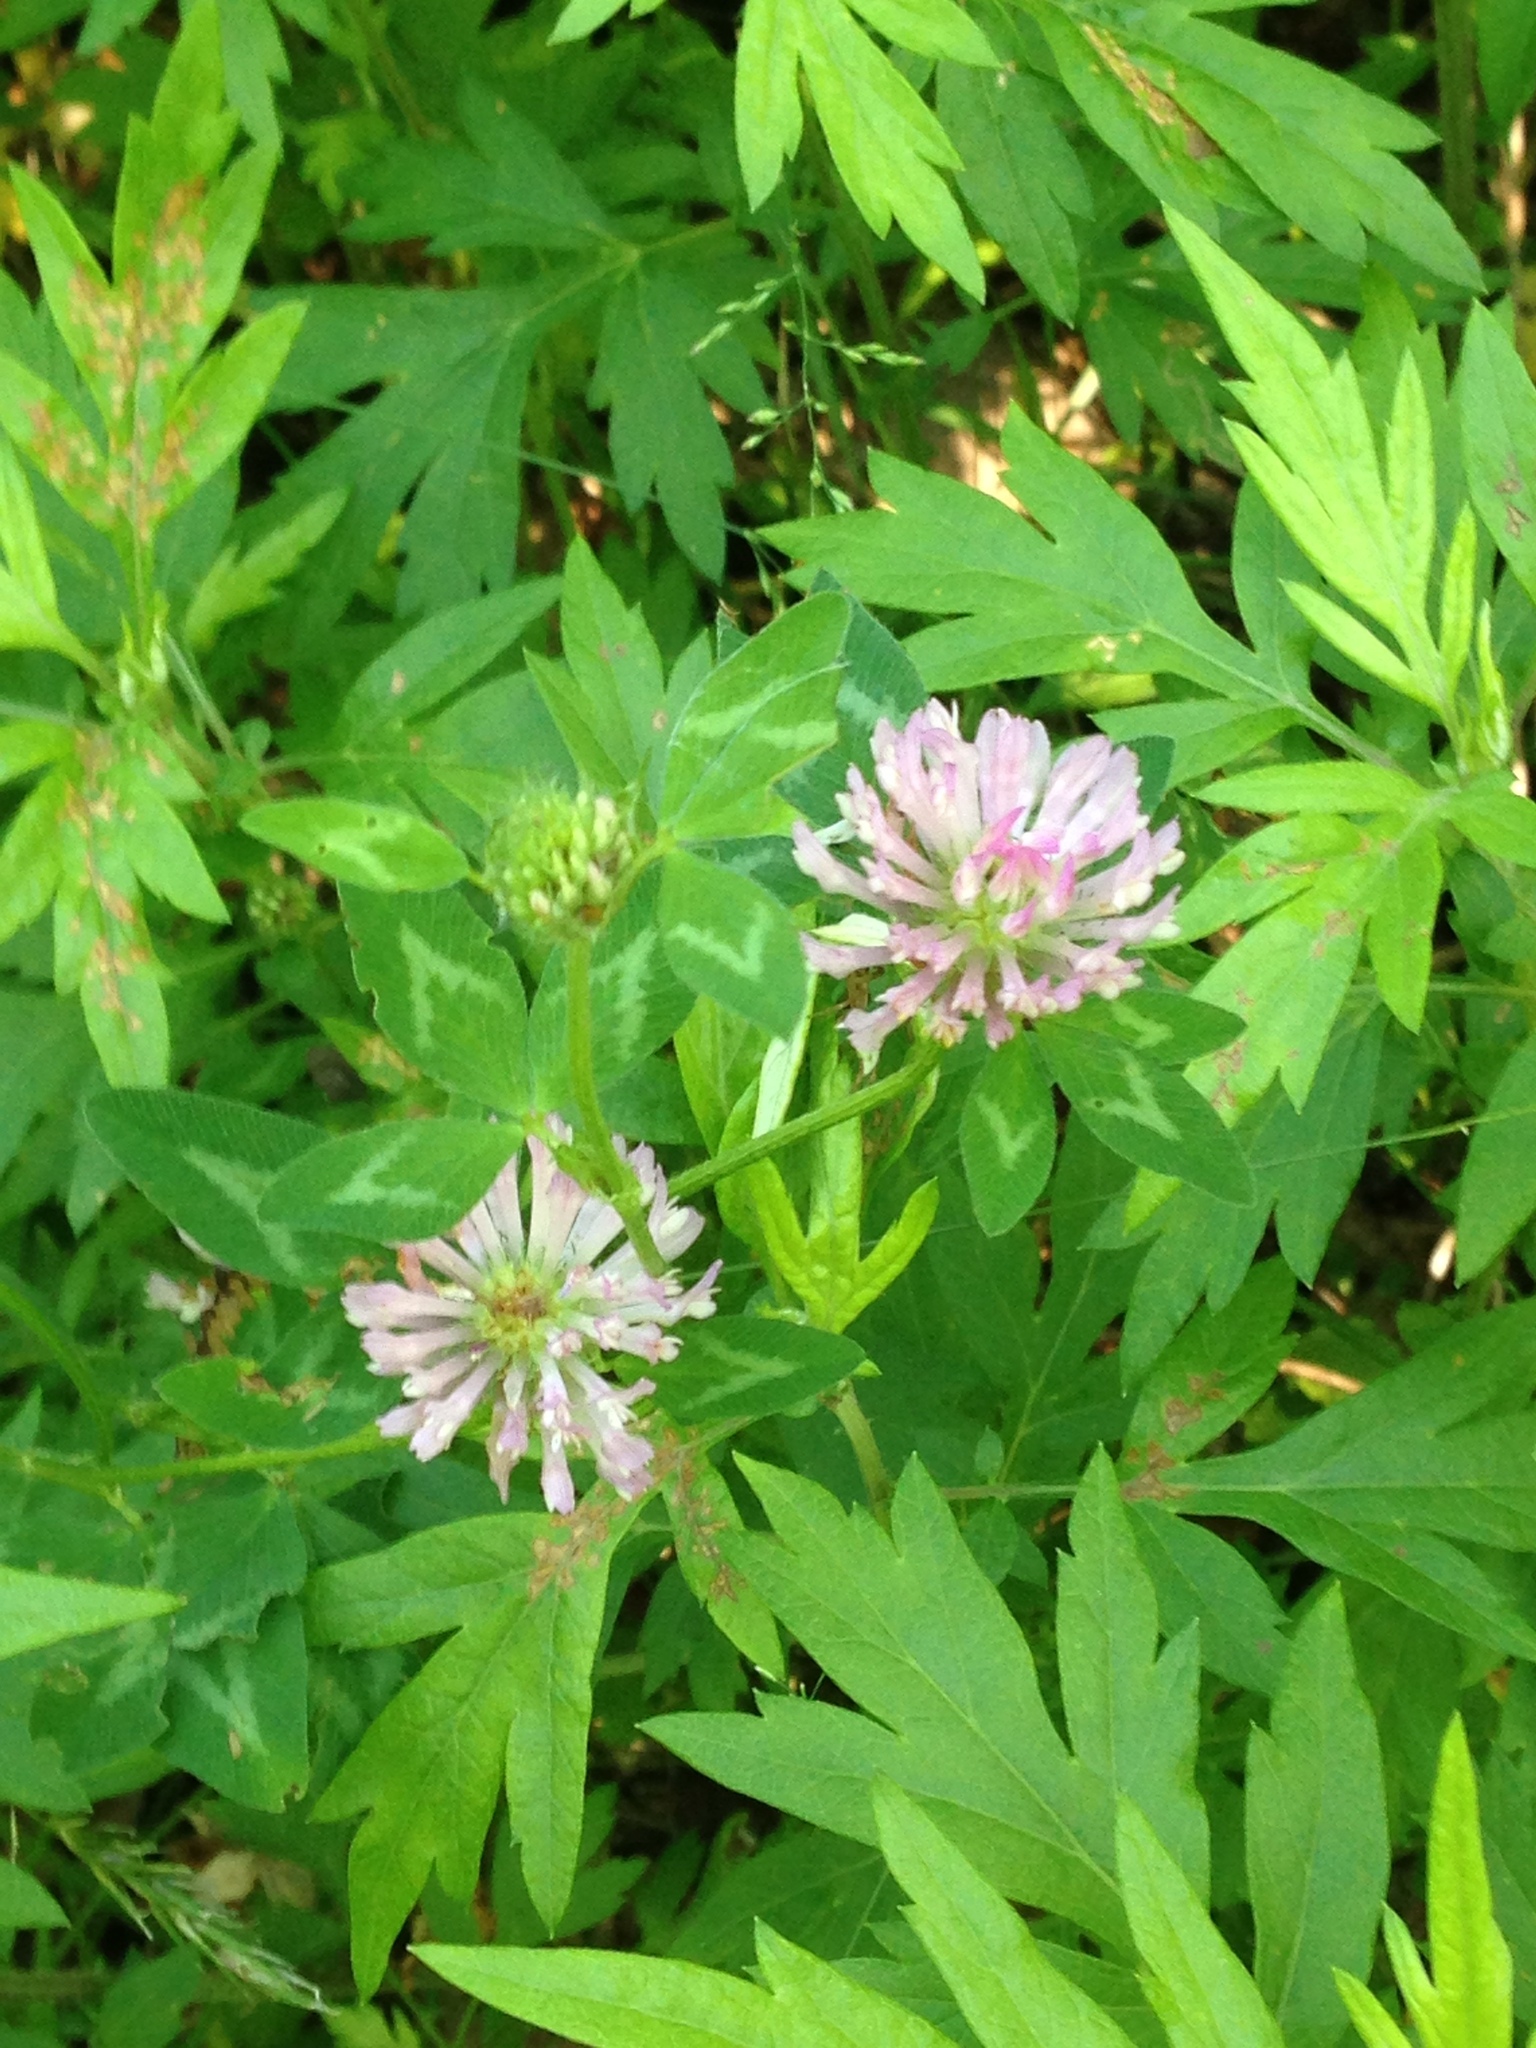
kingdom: Plantae
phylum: Tracheophyta
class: Magnoliopsida
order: Fabales
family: Fabaceae
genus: Trifolium
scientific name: Trifolium pratense
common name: Red clover
